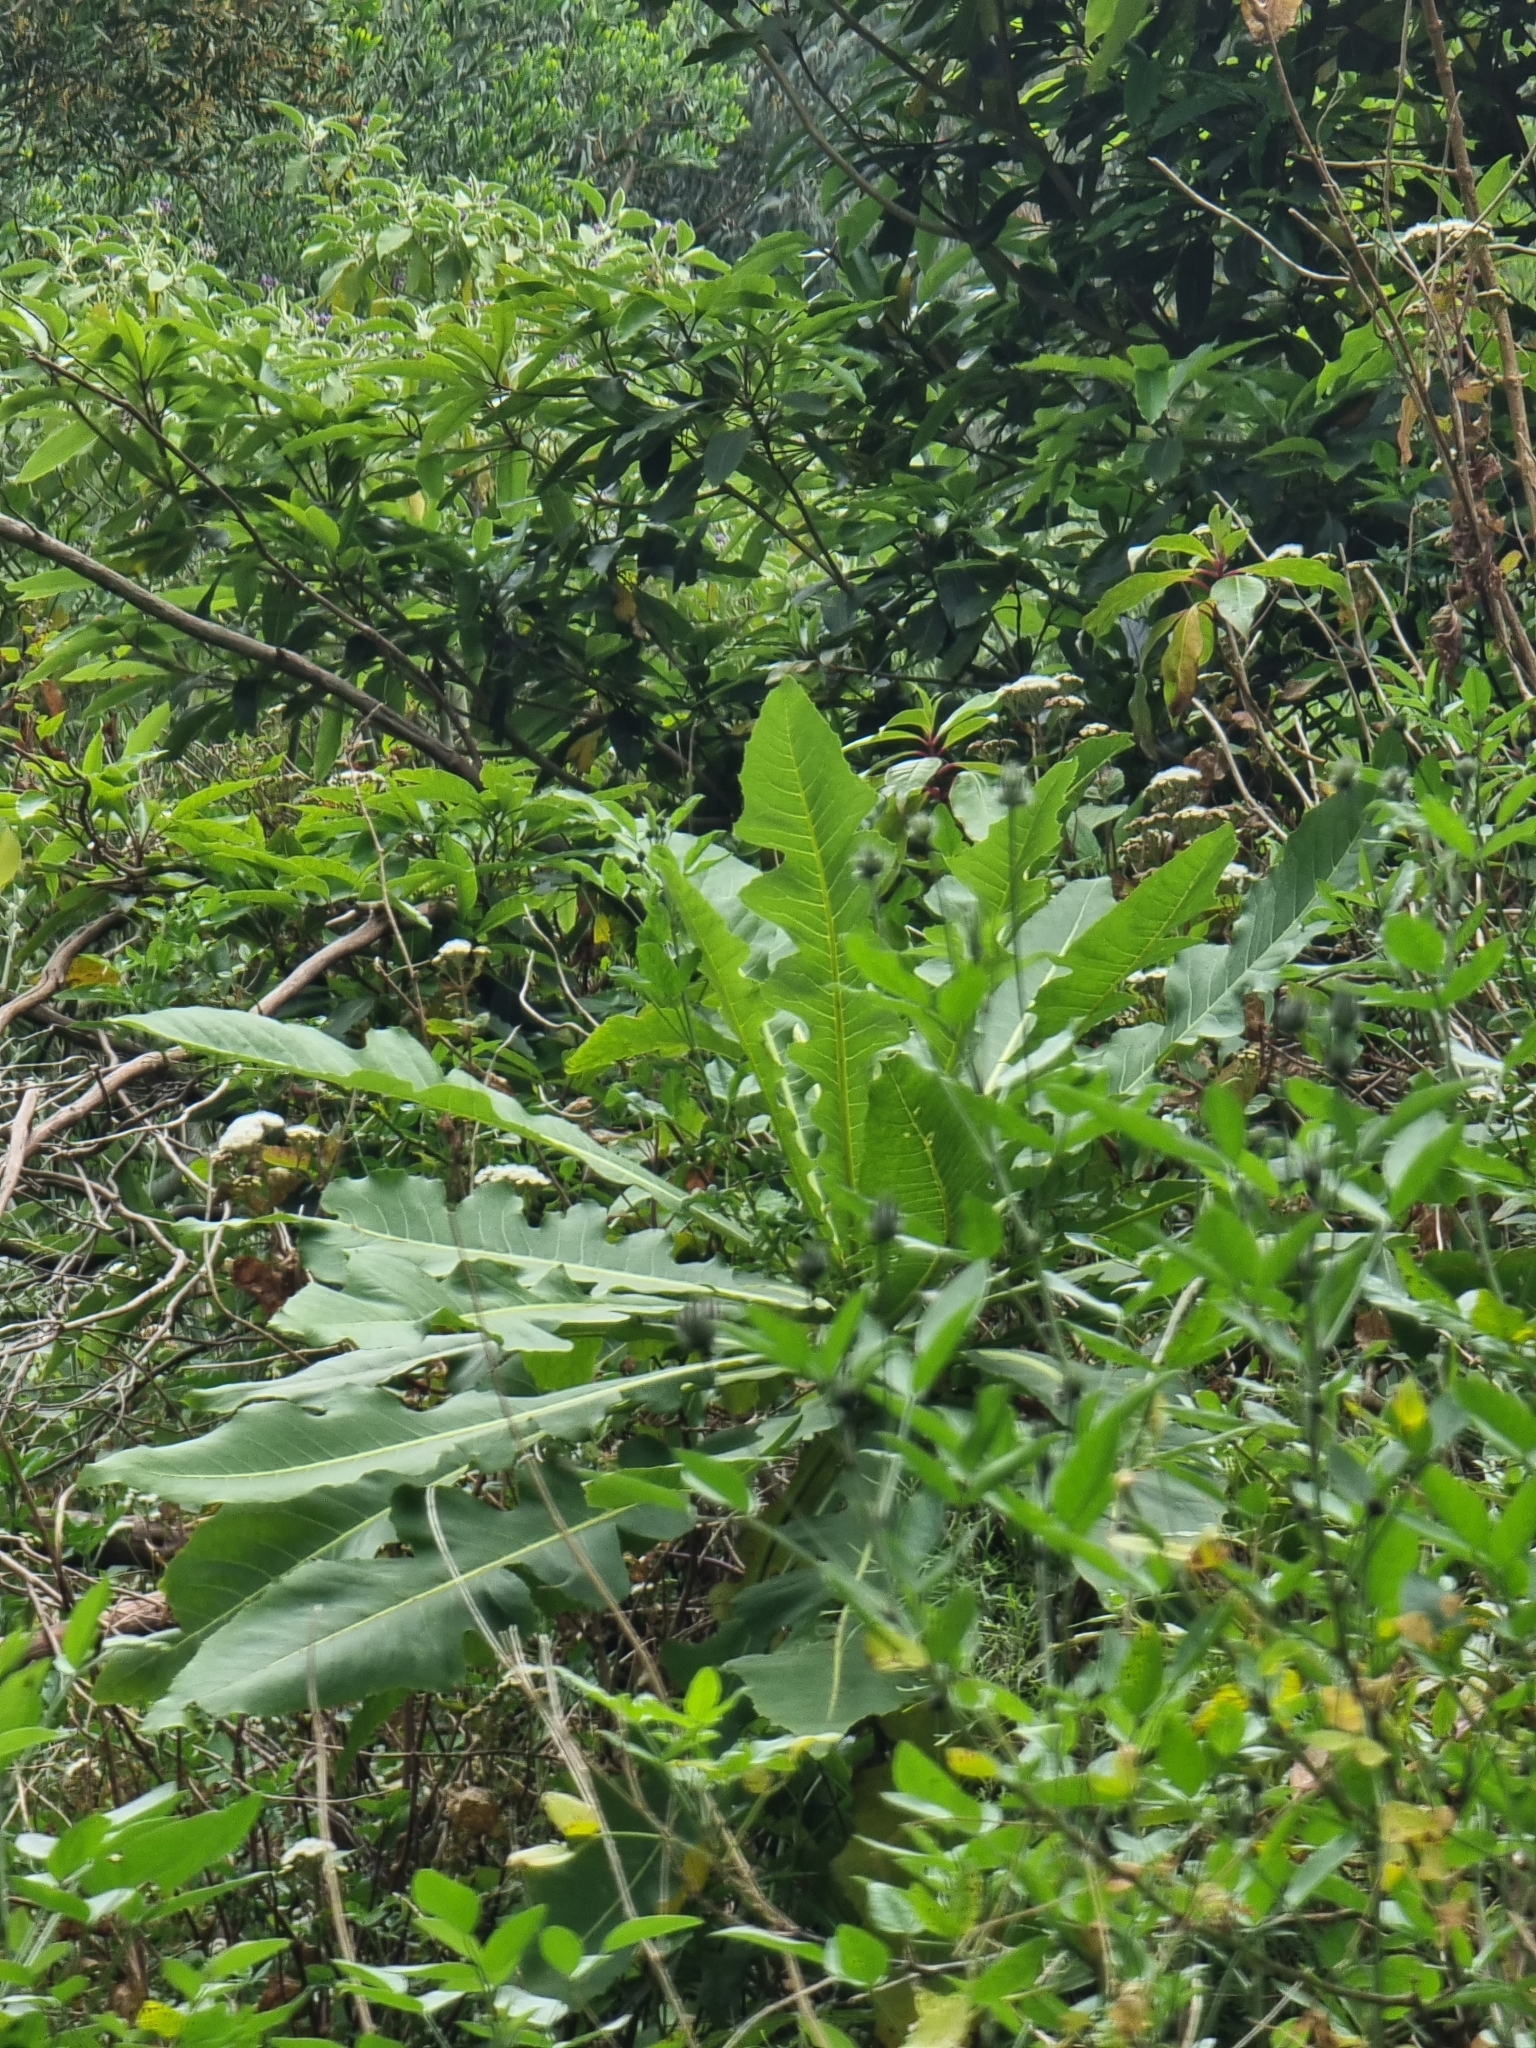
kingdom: Plantae
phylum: Tracheophyta
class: Magnoliopsida
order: Asterales
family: Asteraceae
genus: Sonchus
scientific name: Sonchus fruticosus
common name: Shrubby sow-thistle
